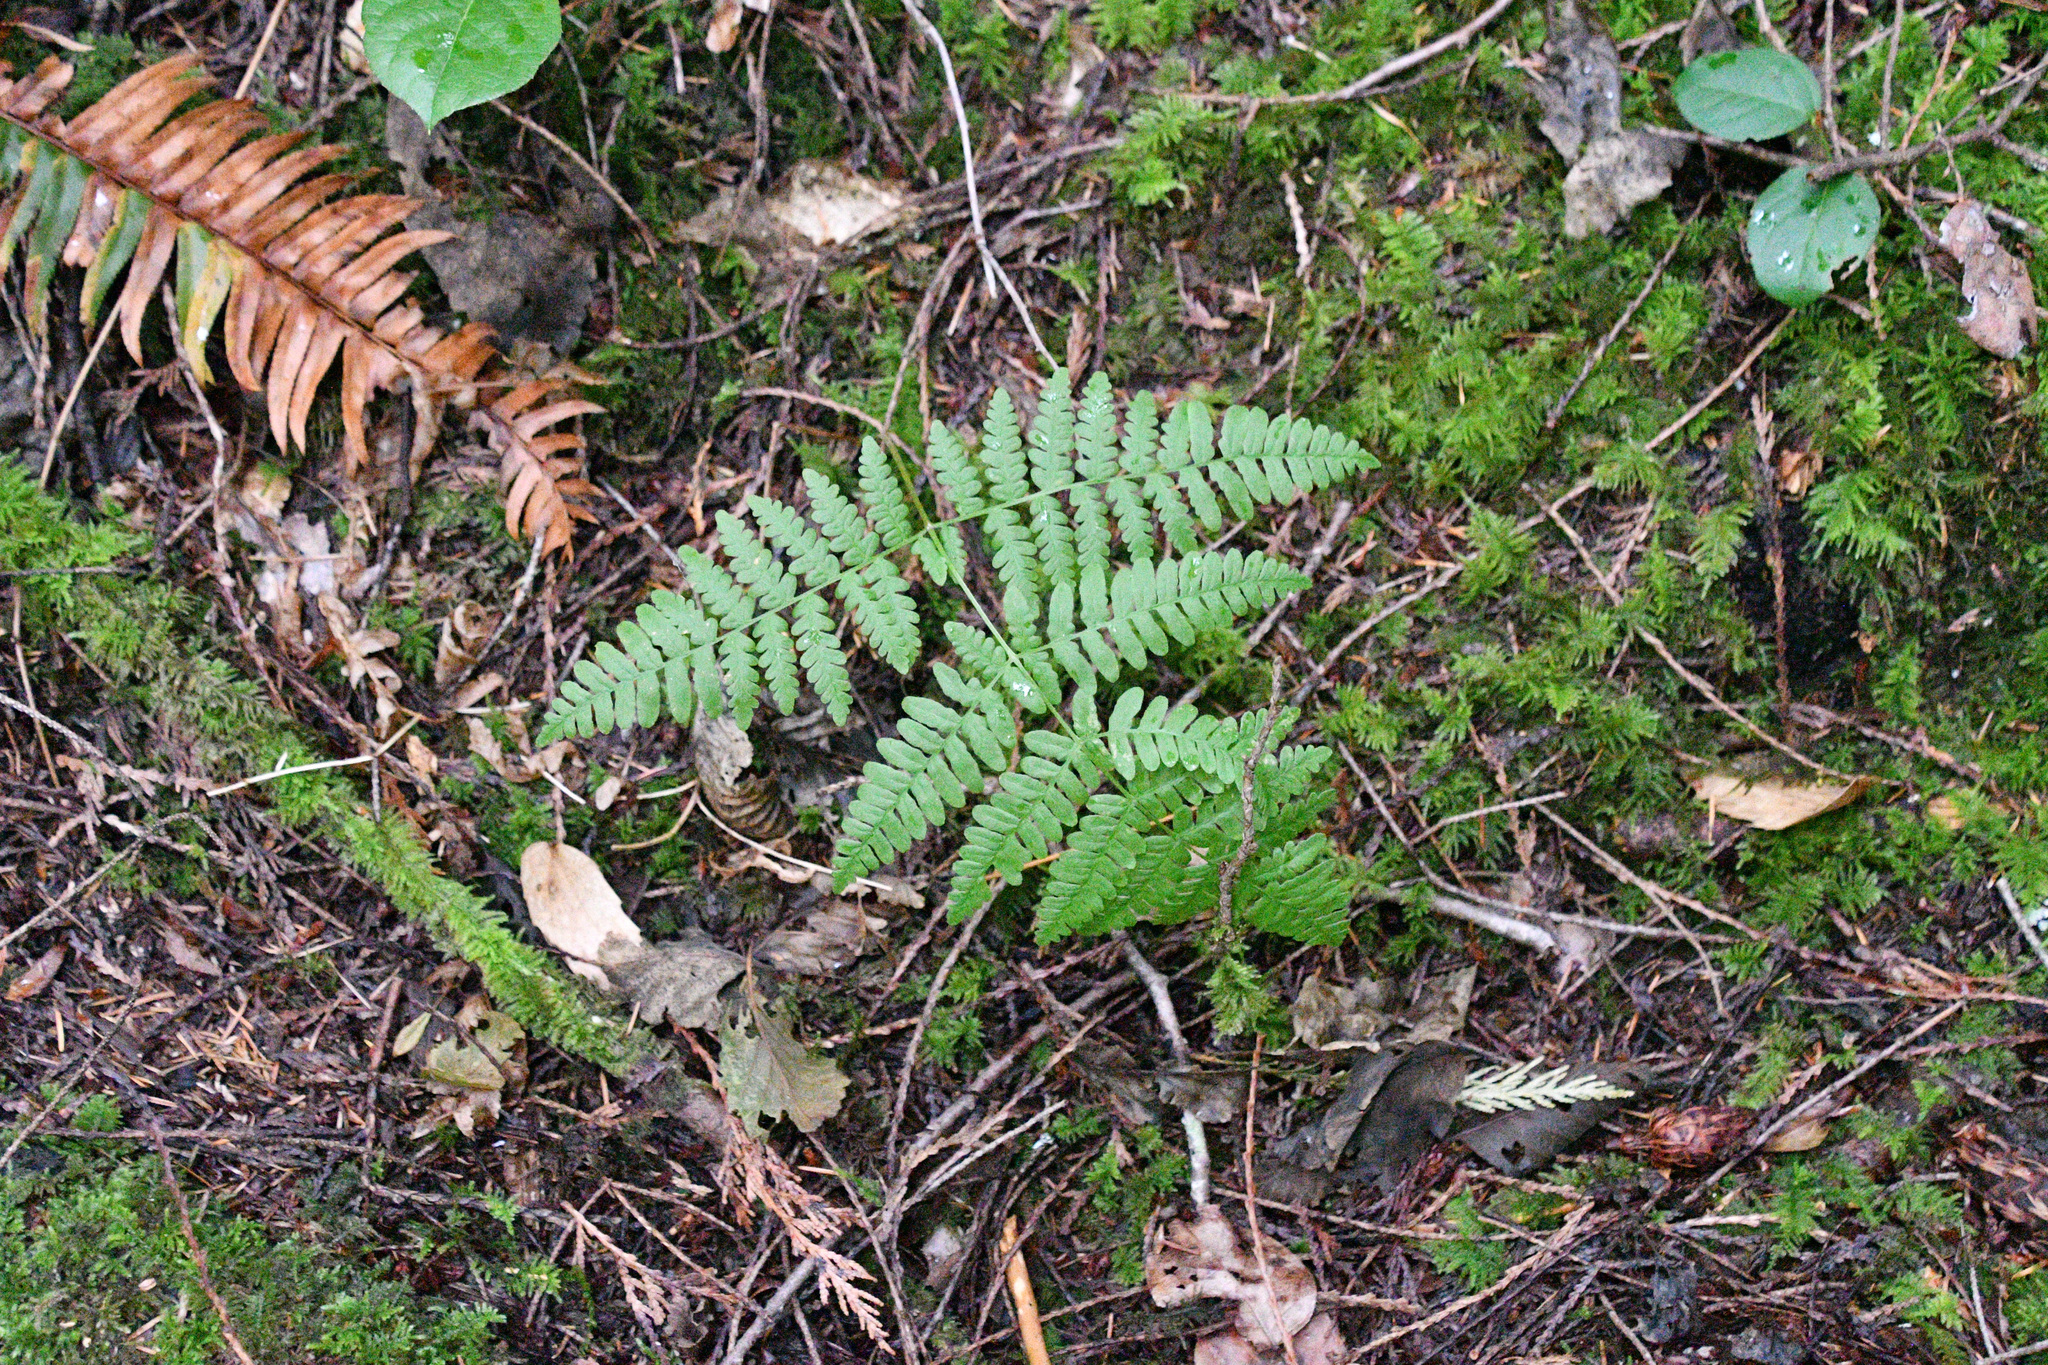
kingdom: Plantae
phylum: Tracheophyta
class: Polypodiopsida
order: Polypodiales
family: Dennstaedtiaceae
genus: Pteridium
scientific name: Pteridium aquilinum
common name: Bracken
